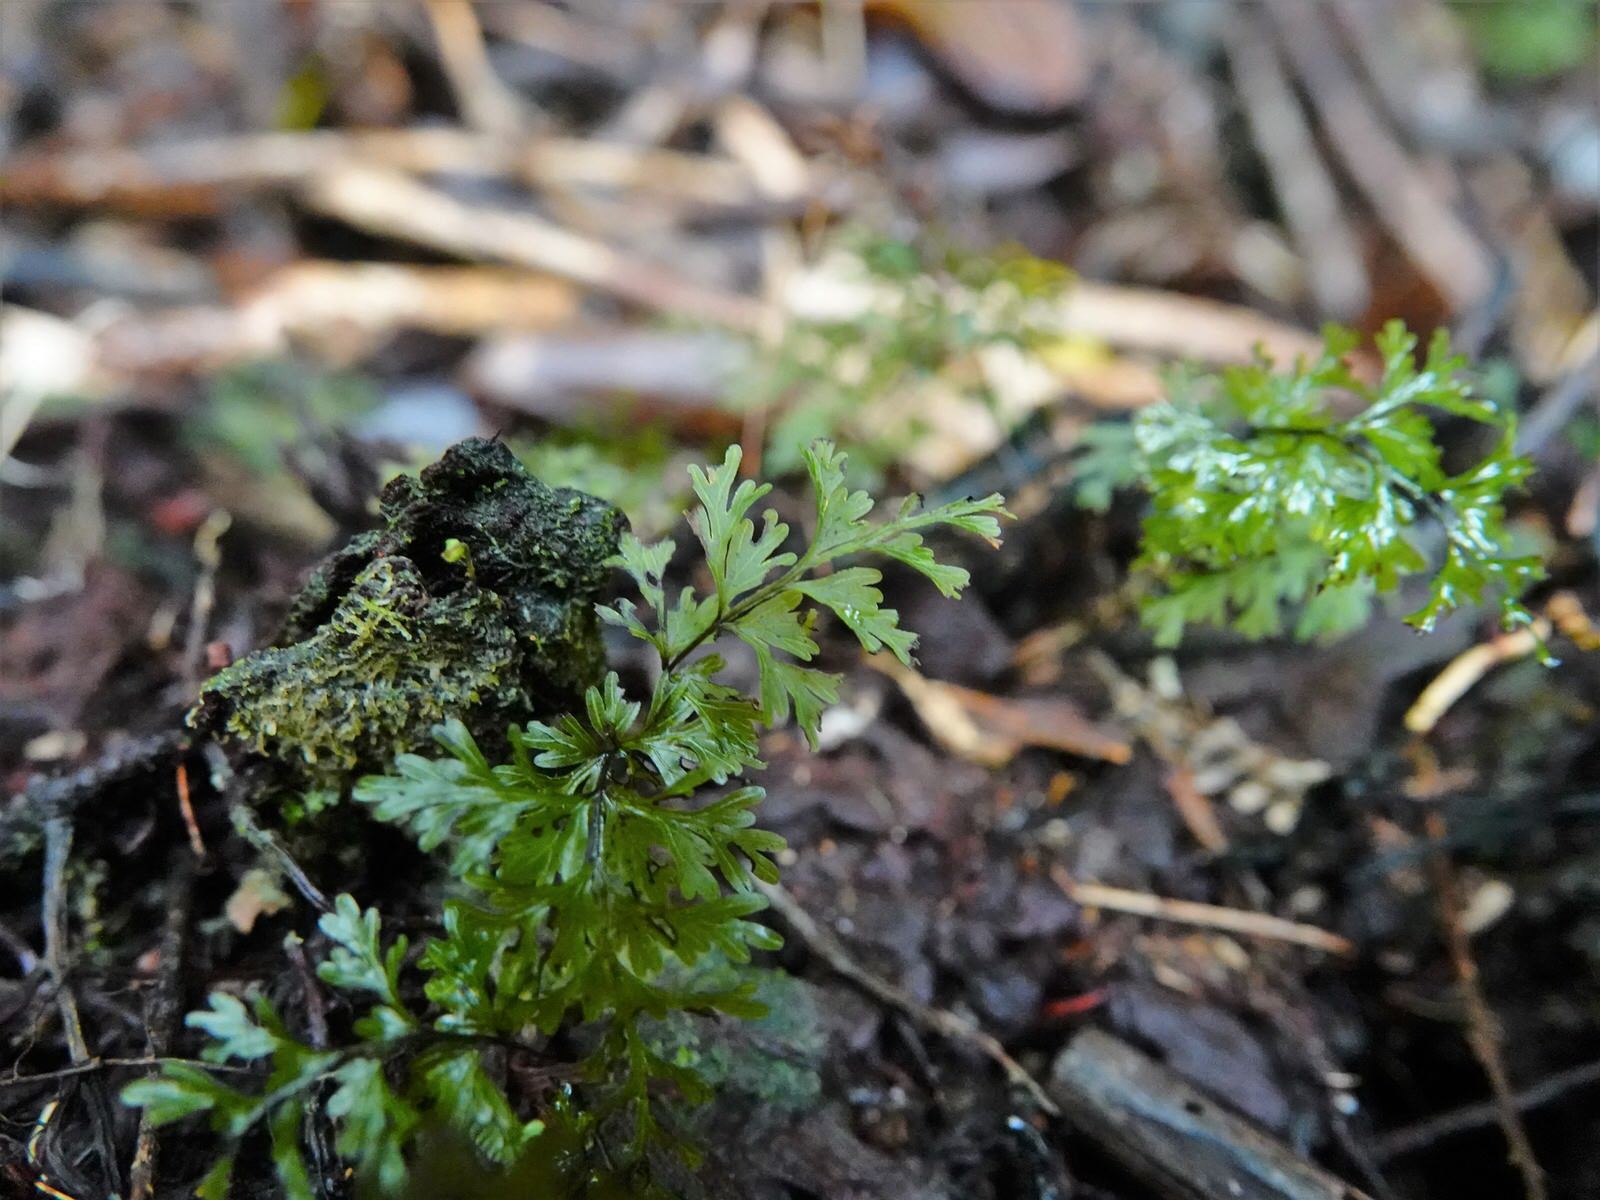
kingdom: Plantae
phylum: Tracheophyta
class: Polypodiopsida
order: Hymenophyllales
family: Hymenophyllaceae
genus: Hymenophyllum
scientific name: Hymenophyllum demissum
